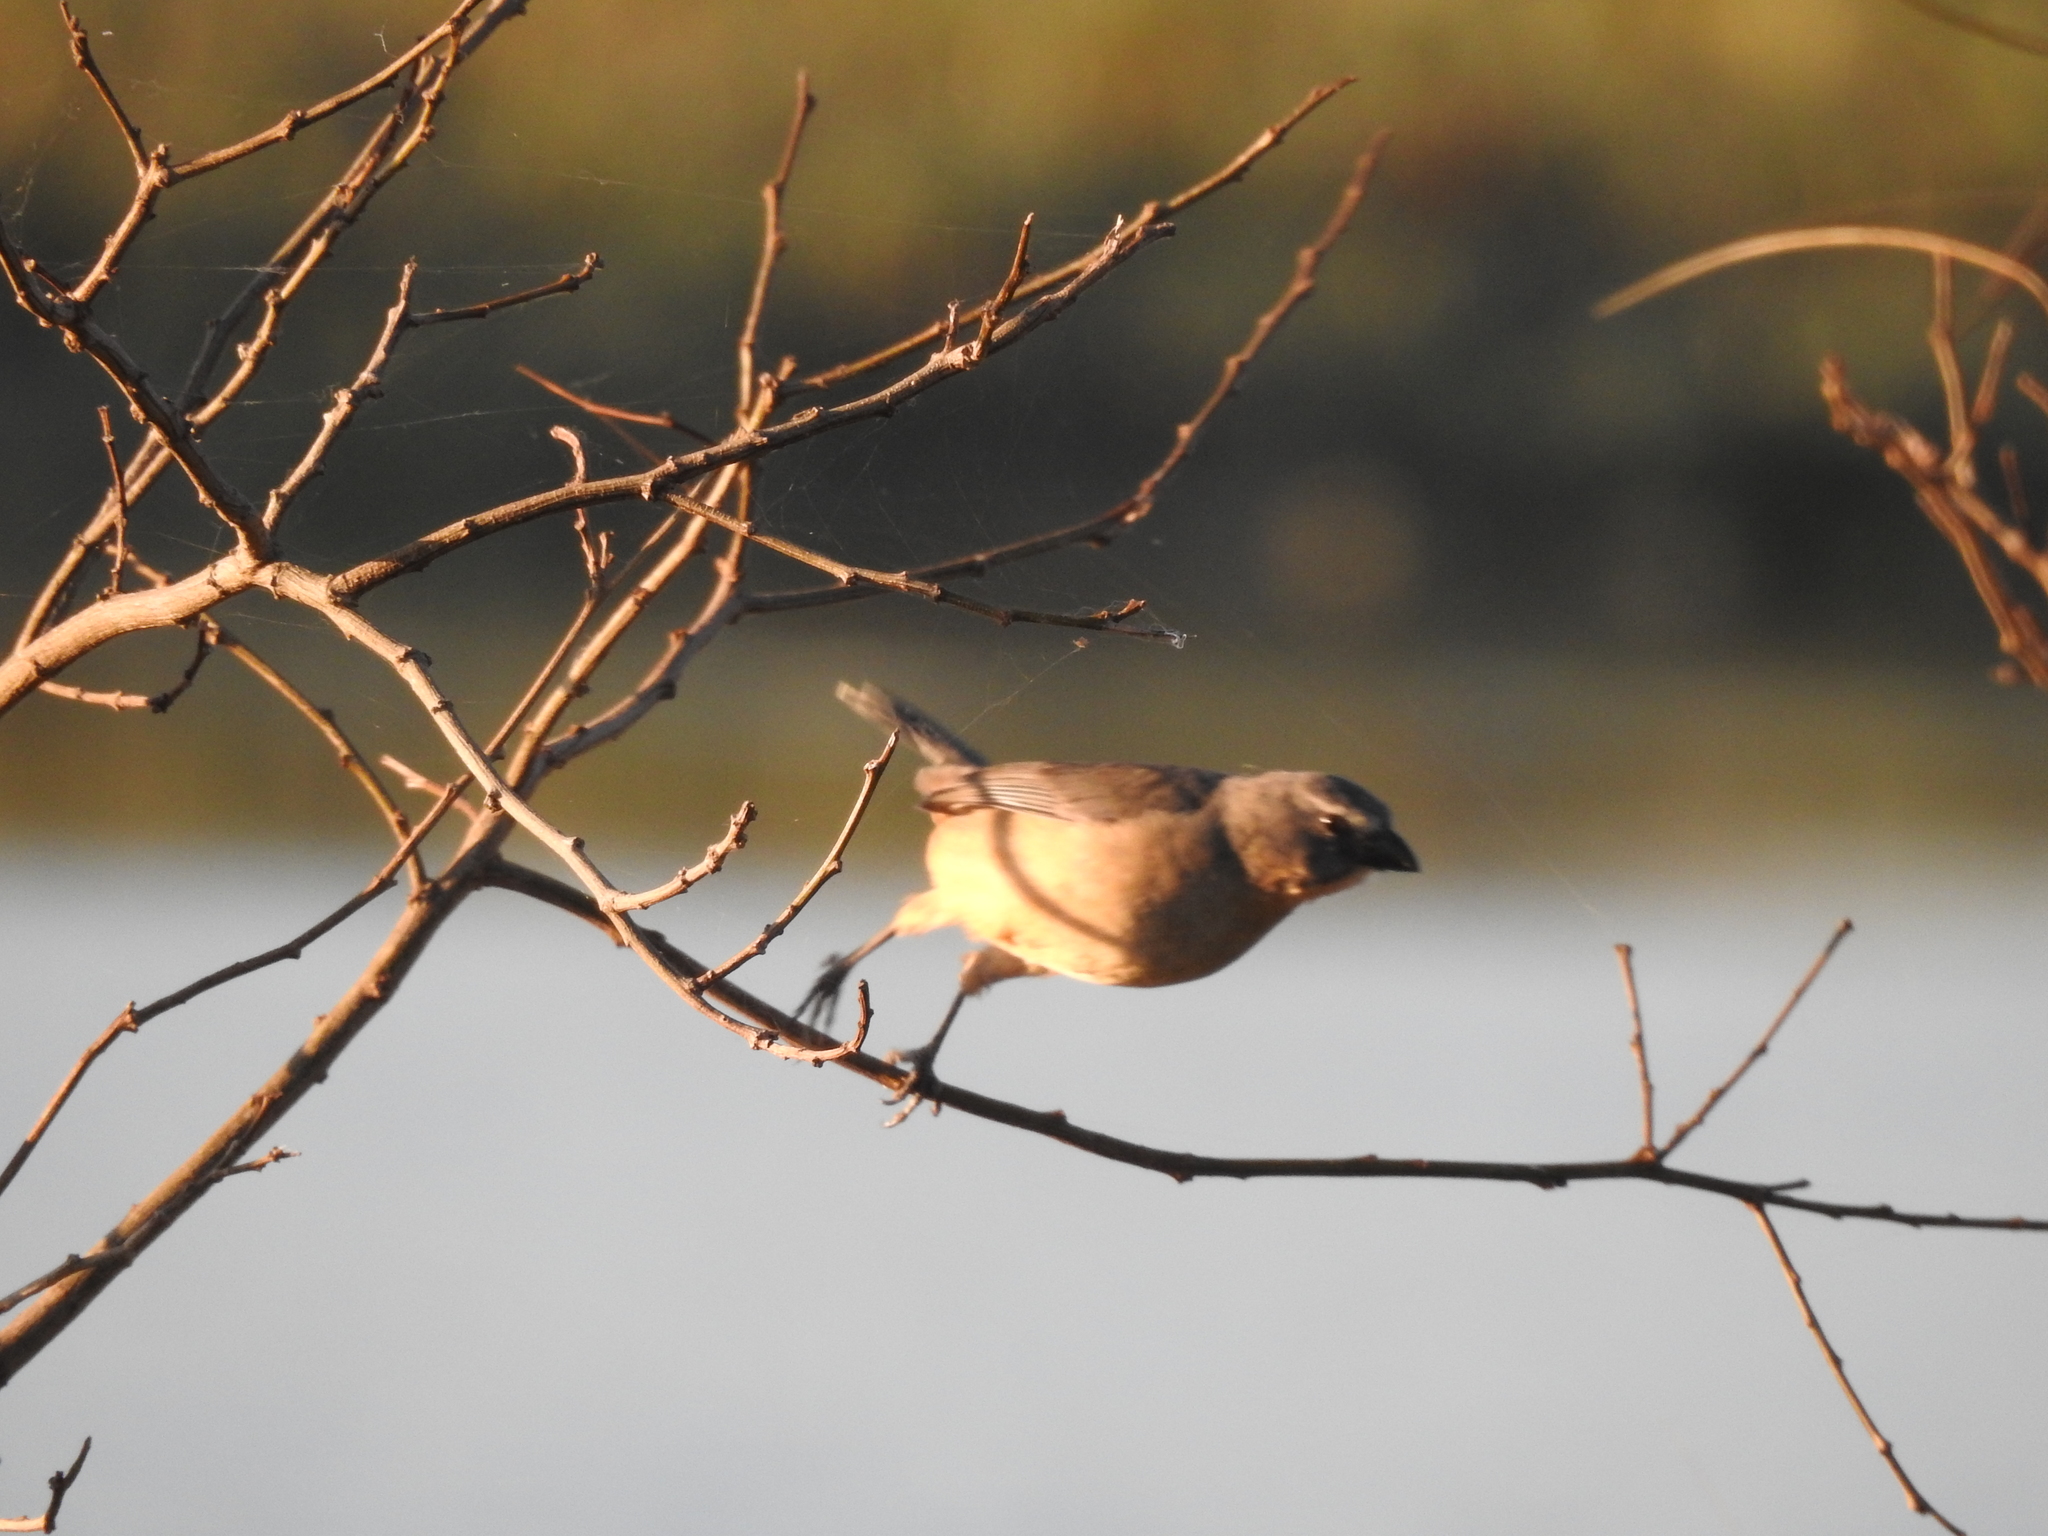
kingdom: Animalia
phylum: Chordata
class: Aves
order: Passeriformes
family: Thraupidae
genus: Saltator
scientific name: Saltator coerulescens
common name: Grayish saltator
